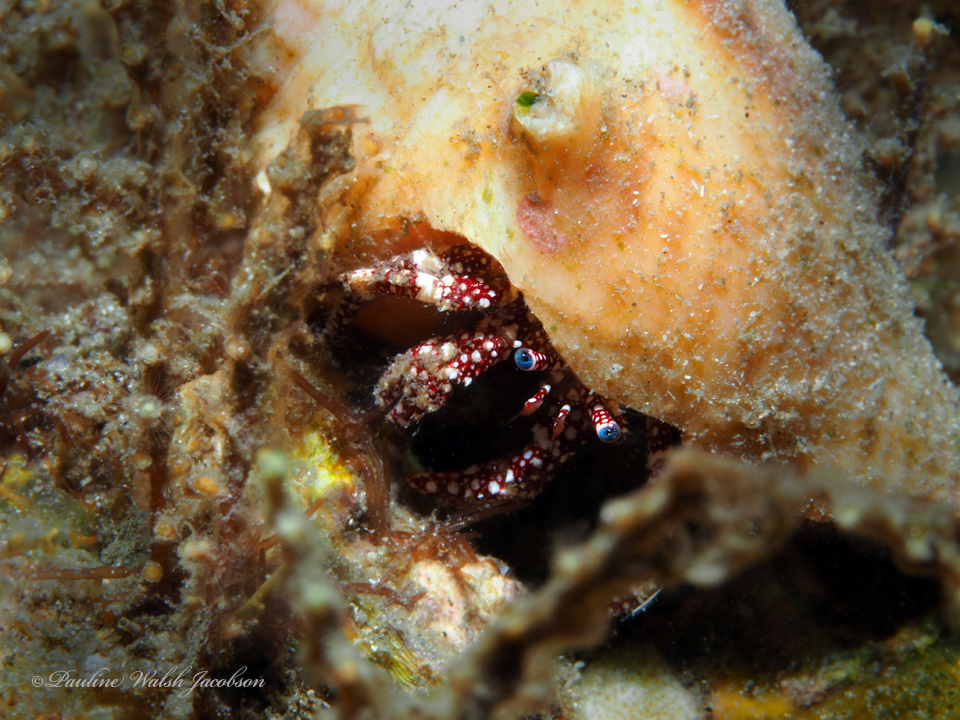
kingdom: Animalia
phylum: Arthropoda
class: Malacostraca
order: Decapoda
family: Diogenidae
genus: Paguristes
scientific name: Paguristes puncticeps
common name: White speckled hermit
